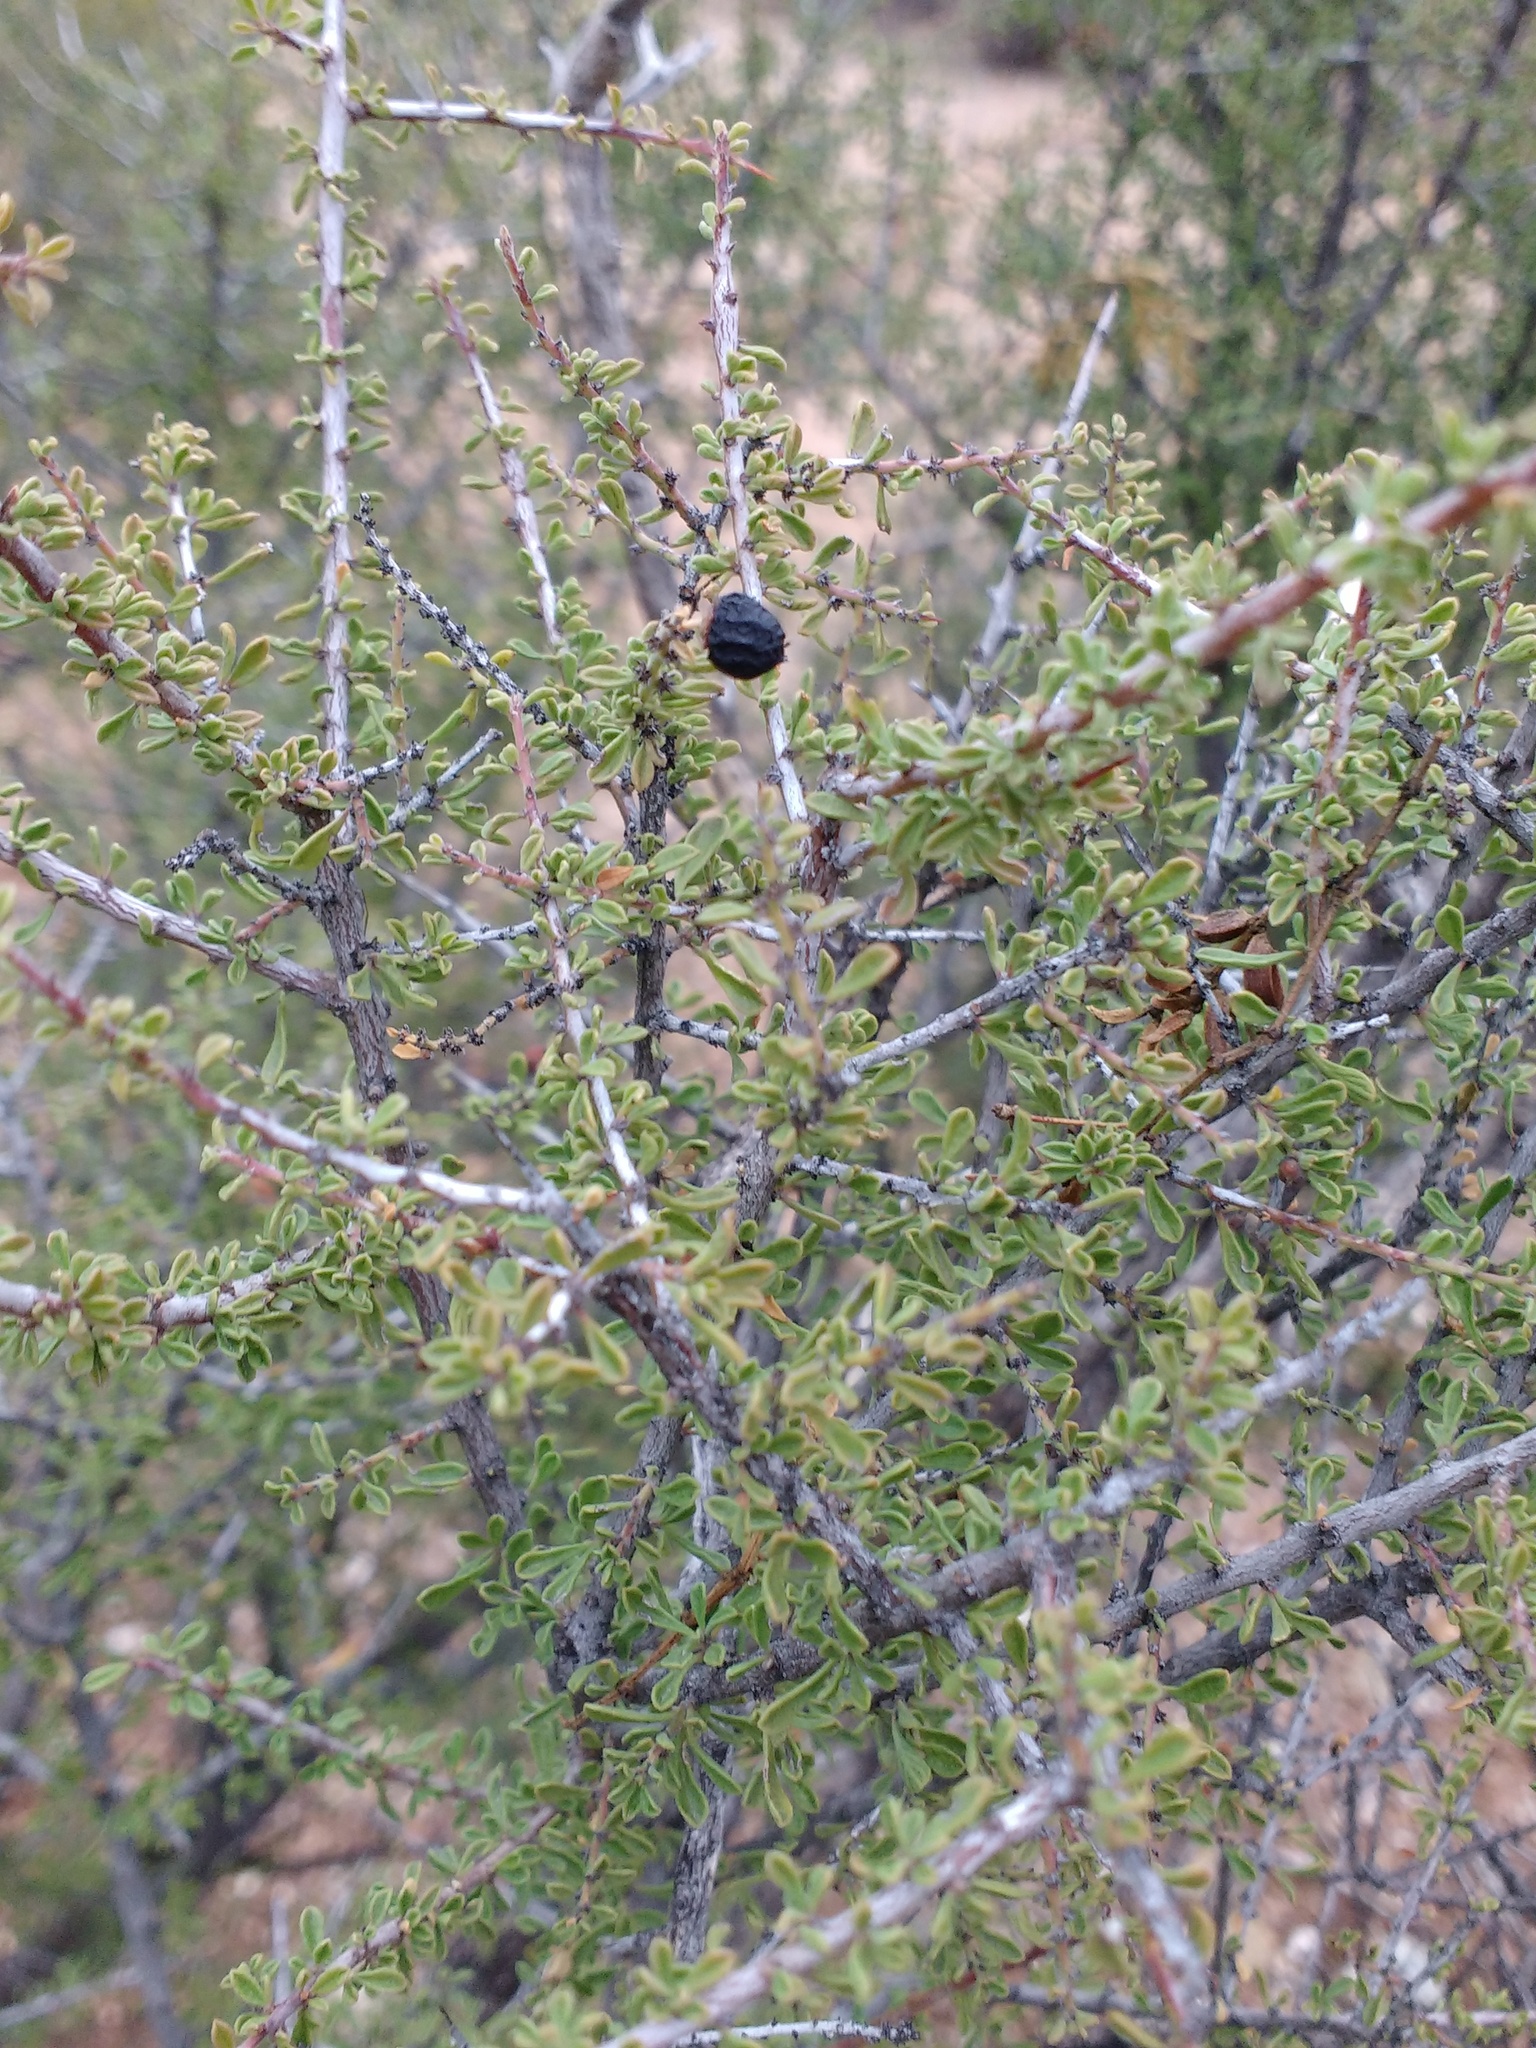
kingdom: Plantae
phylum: Tracheophyta
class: Magnoliopsida
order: Rosales
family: Rhamnaceae
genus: Condalia
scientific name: Condalia warnockii
